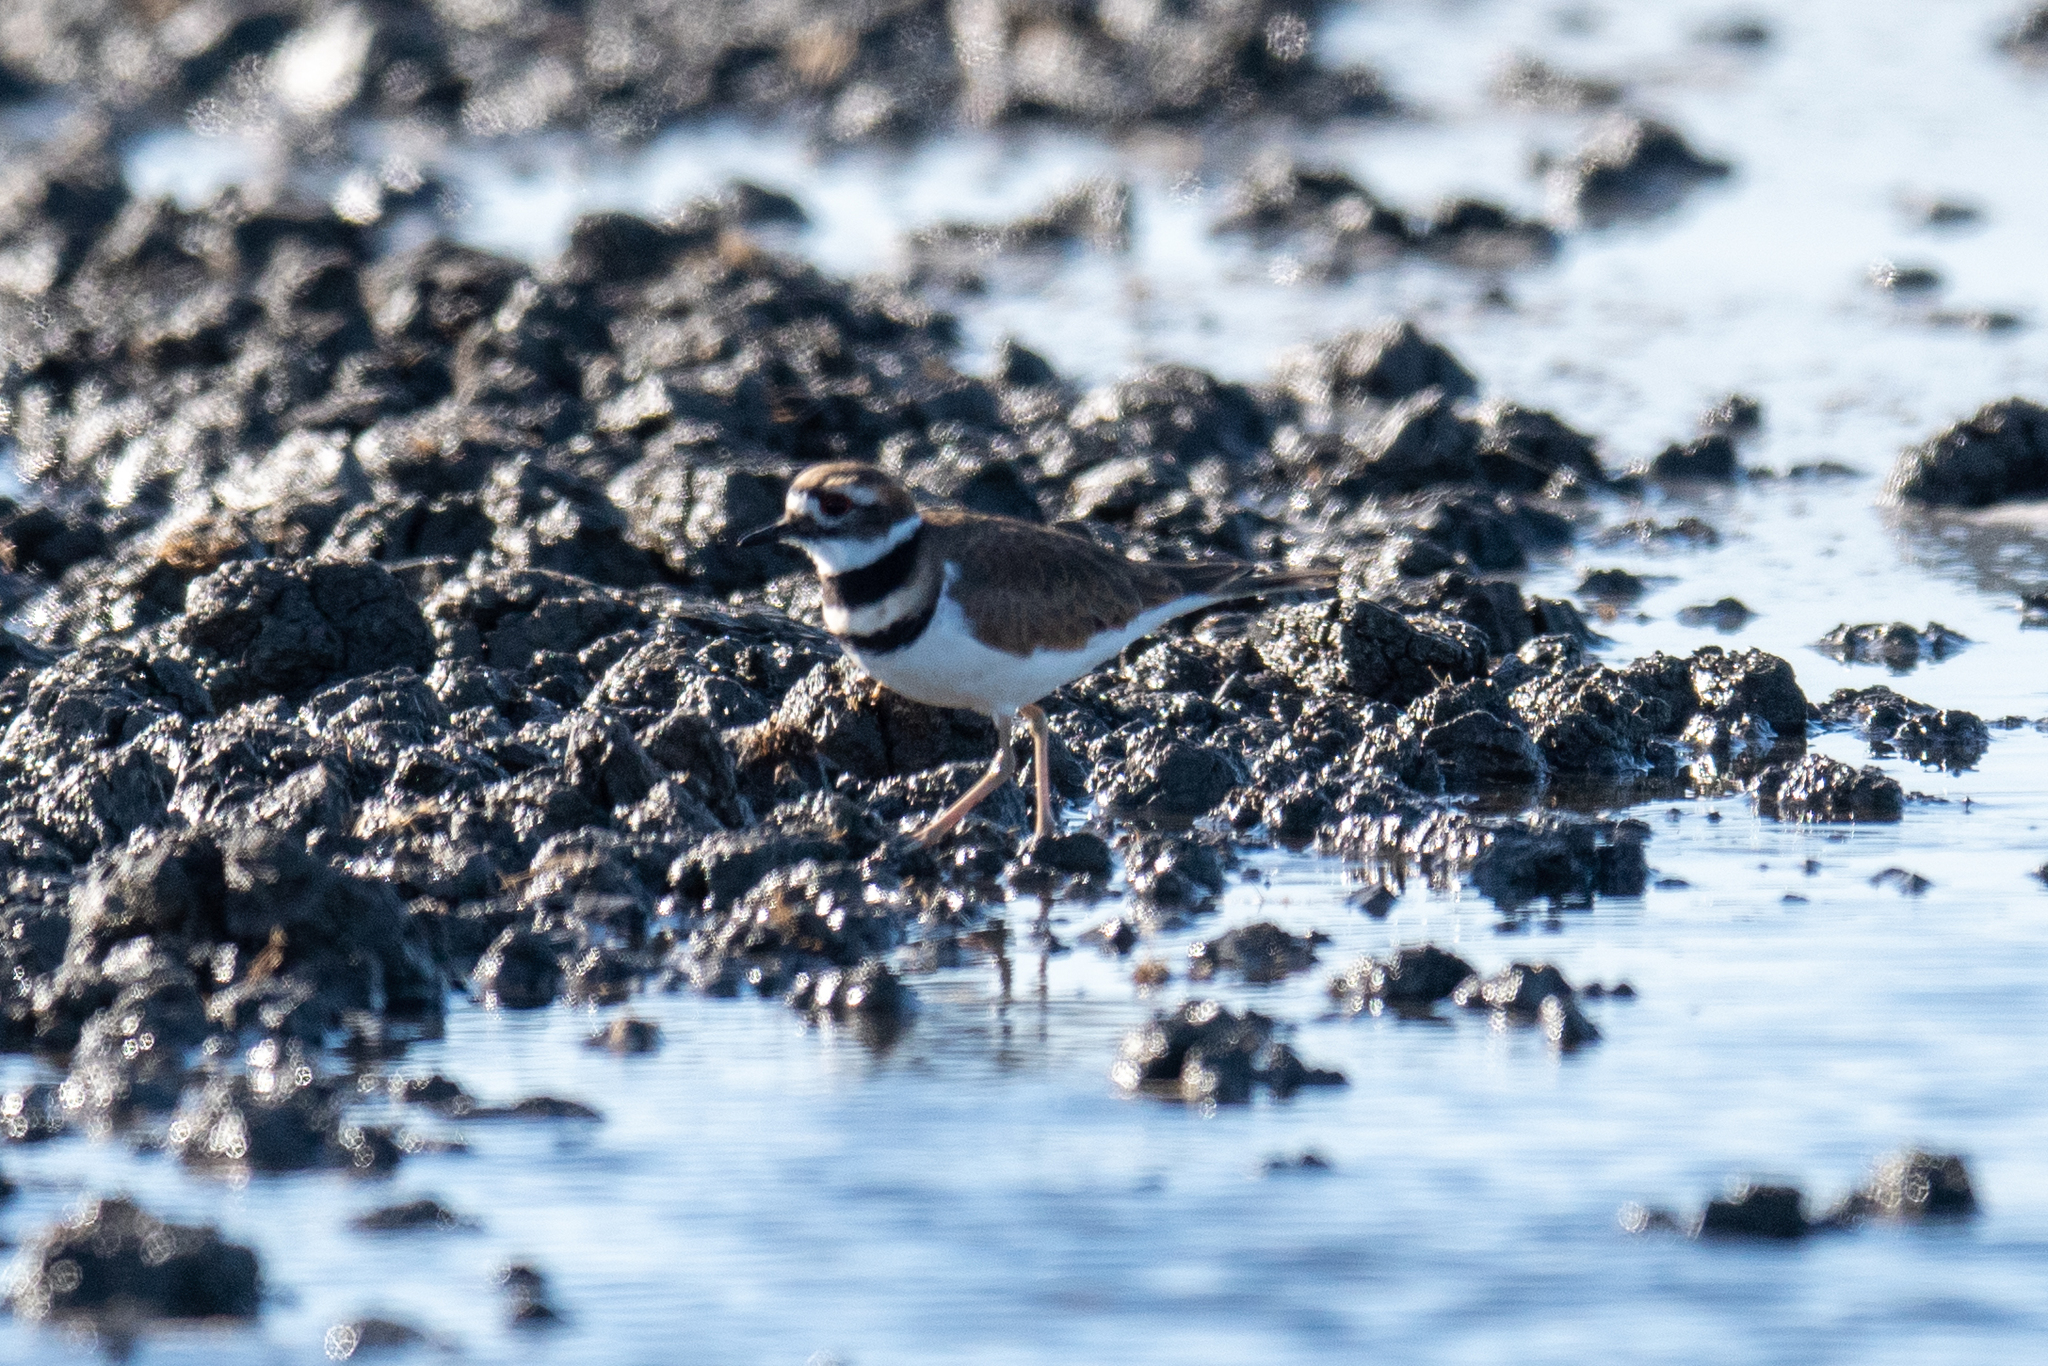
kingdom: Animalia
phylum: Chordata
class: Aves
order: Charadriiformes
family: Charadriidae
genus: Charadrius
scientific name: Charadrius vociferus
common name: Killdeer
